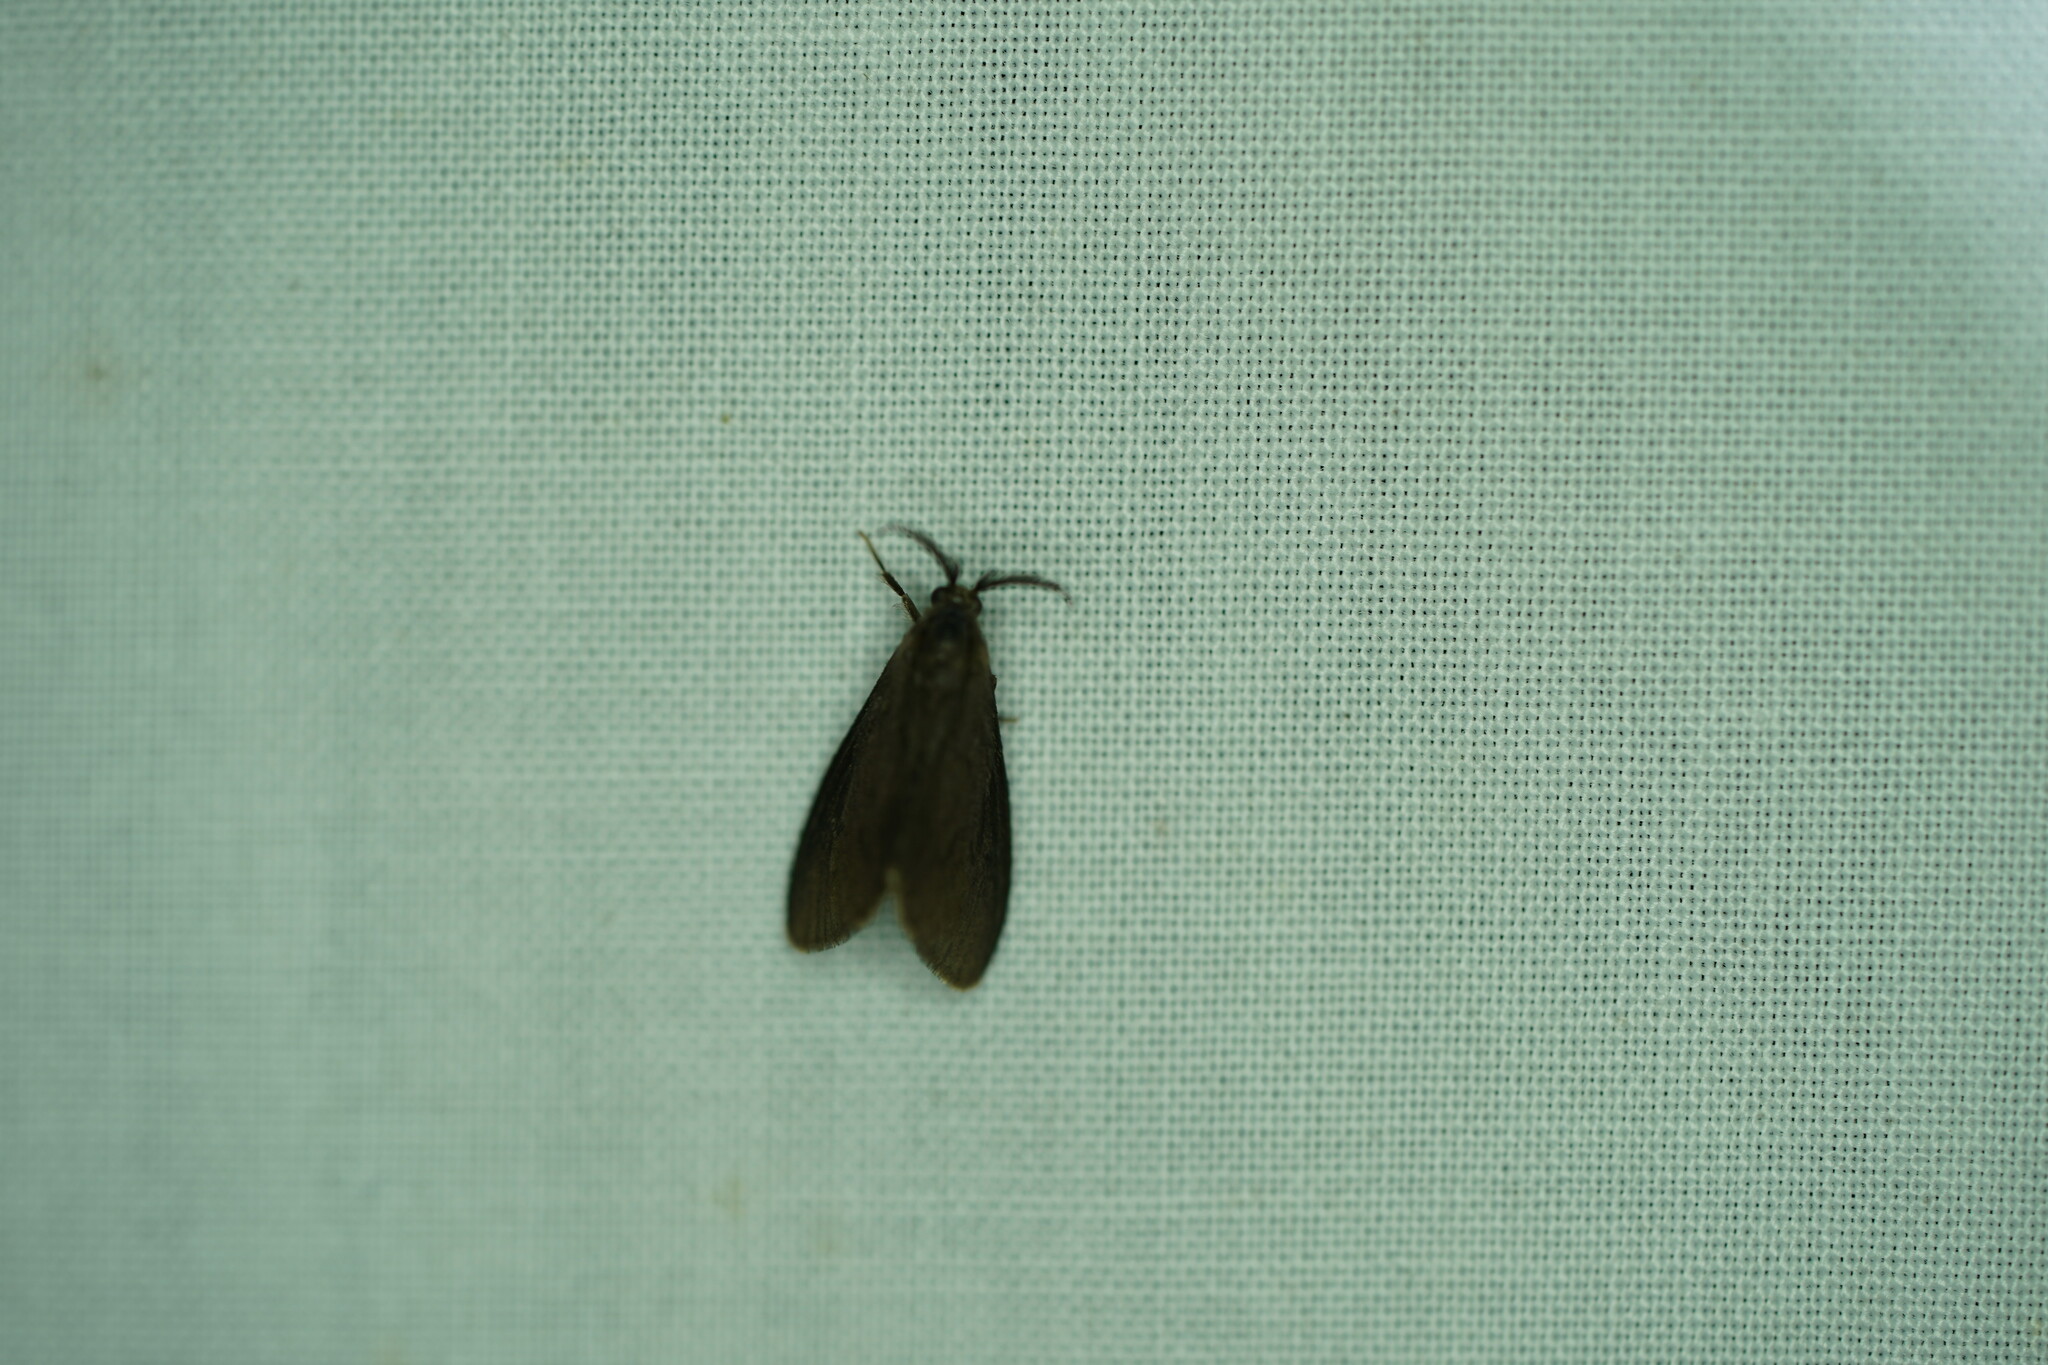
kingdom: Animalia
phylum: Arthropoda
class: Insecta
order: Lepidoptera
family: Psychidae
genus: Cryptothelea
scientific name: Cryptothelea gloverii
